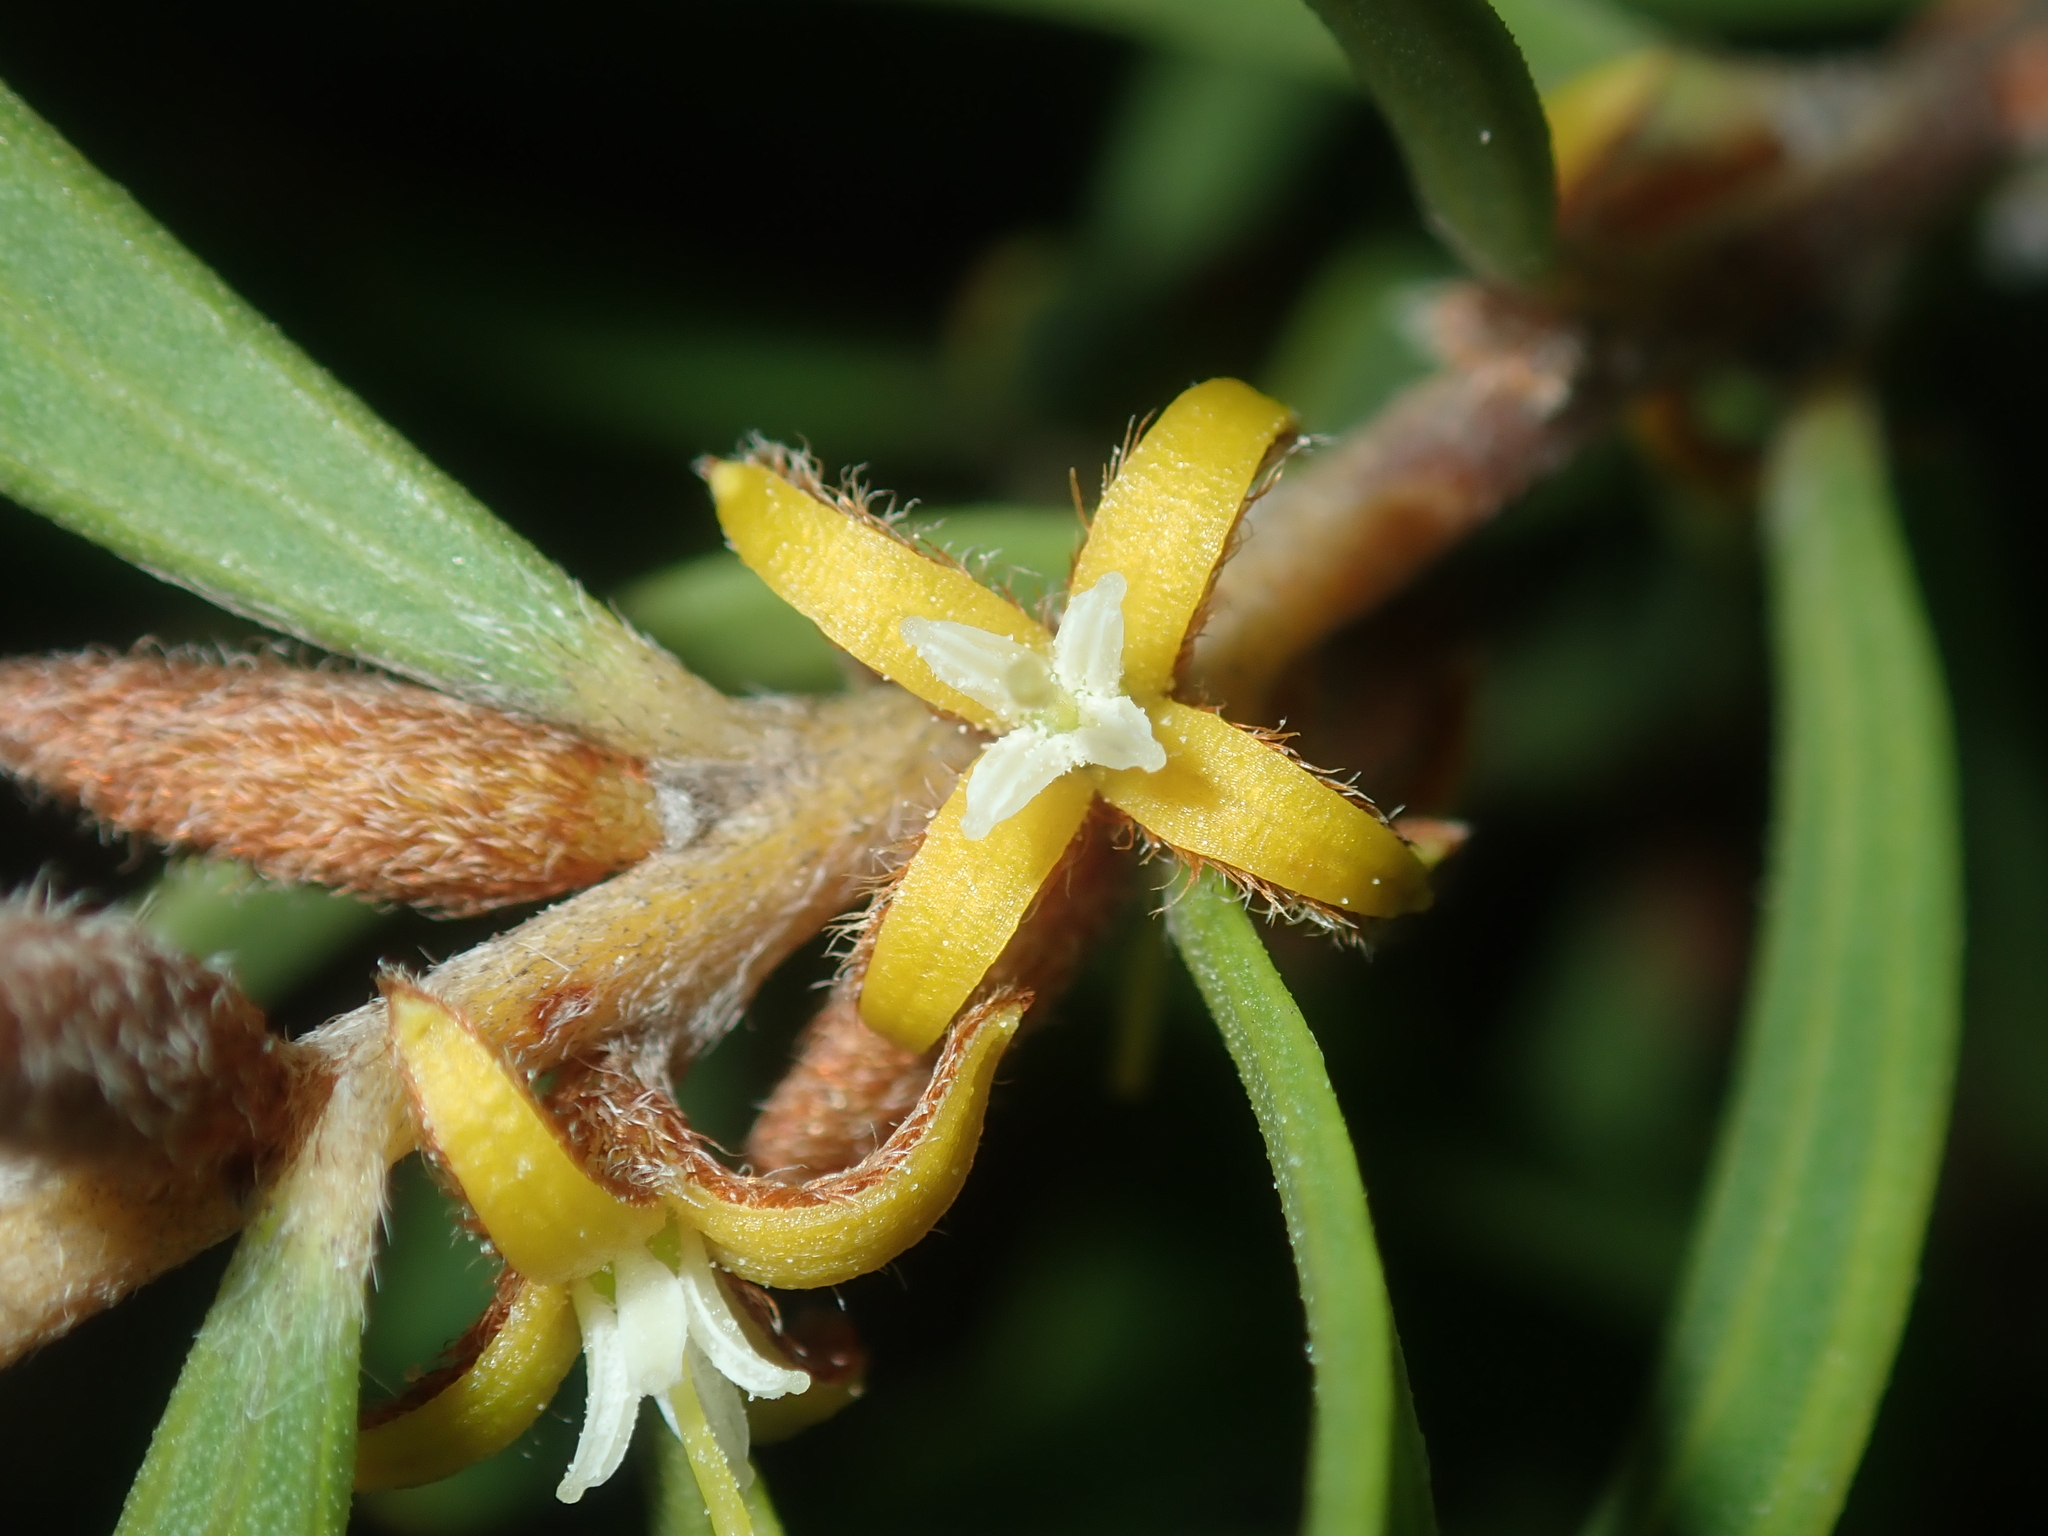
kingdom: Plantae
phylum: Tracheophyta
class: Magnoliopsida
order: Proteales
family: Proteaceae
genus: Persoonia
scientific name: Persoonia rufiflora
